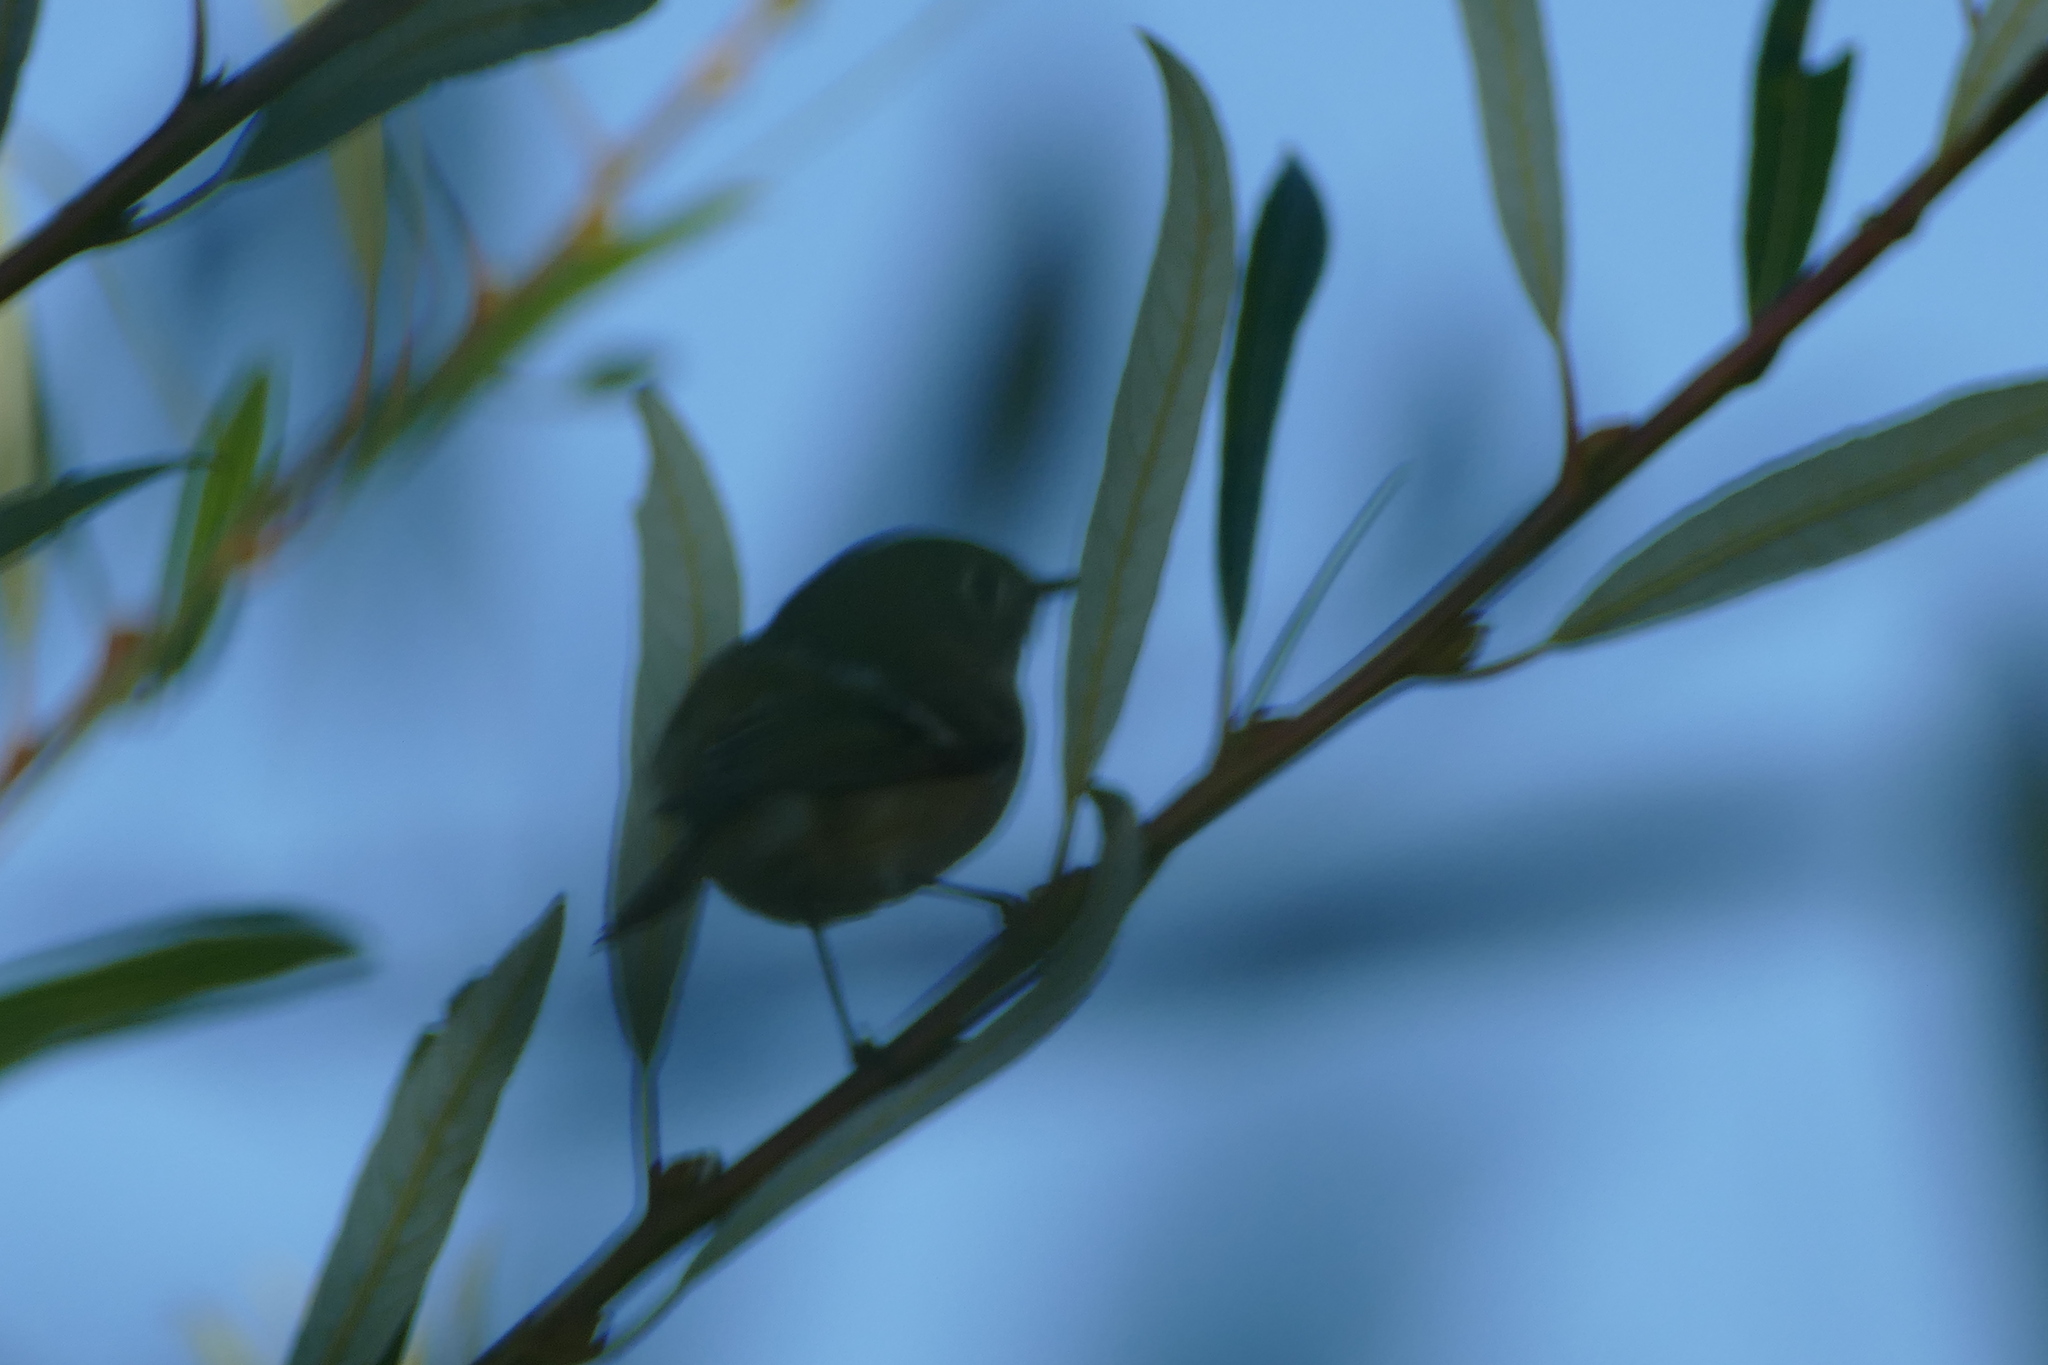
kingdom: Animalia
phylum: Chordata
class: Aves
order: Passeriformes
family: Regulidae
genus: Regulus
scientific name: Regulus calendula
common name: Ruby-crowned kinglet
